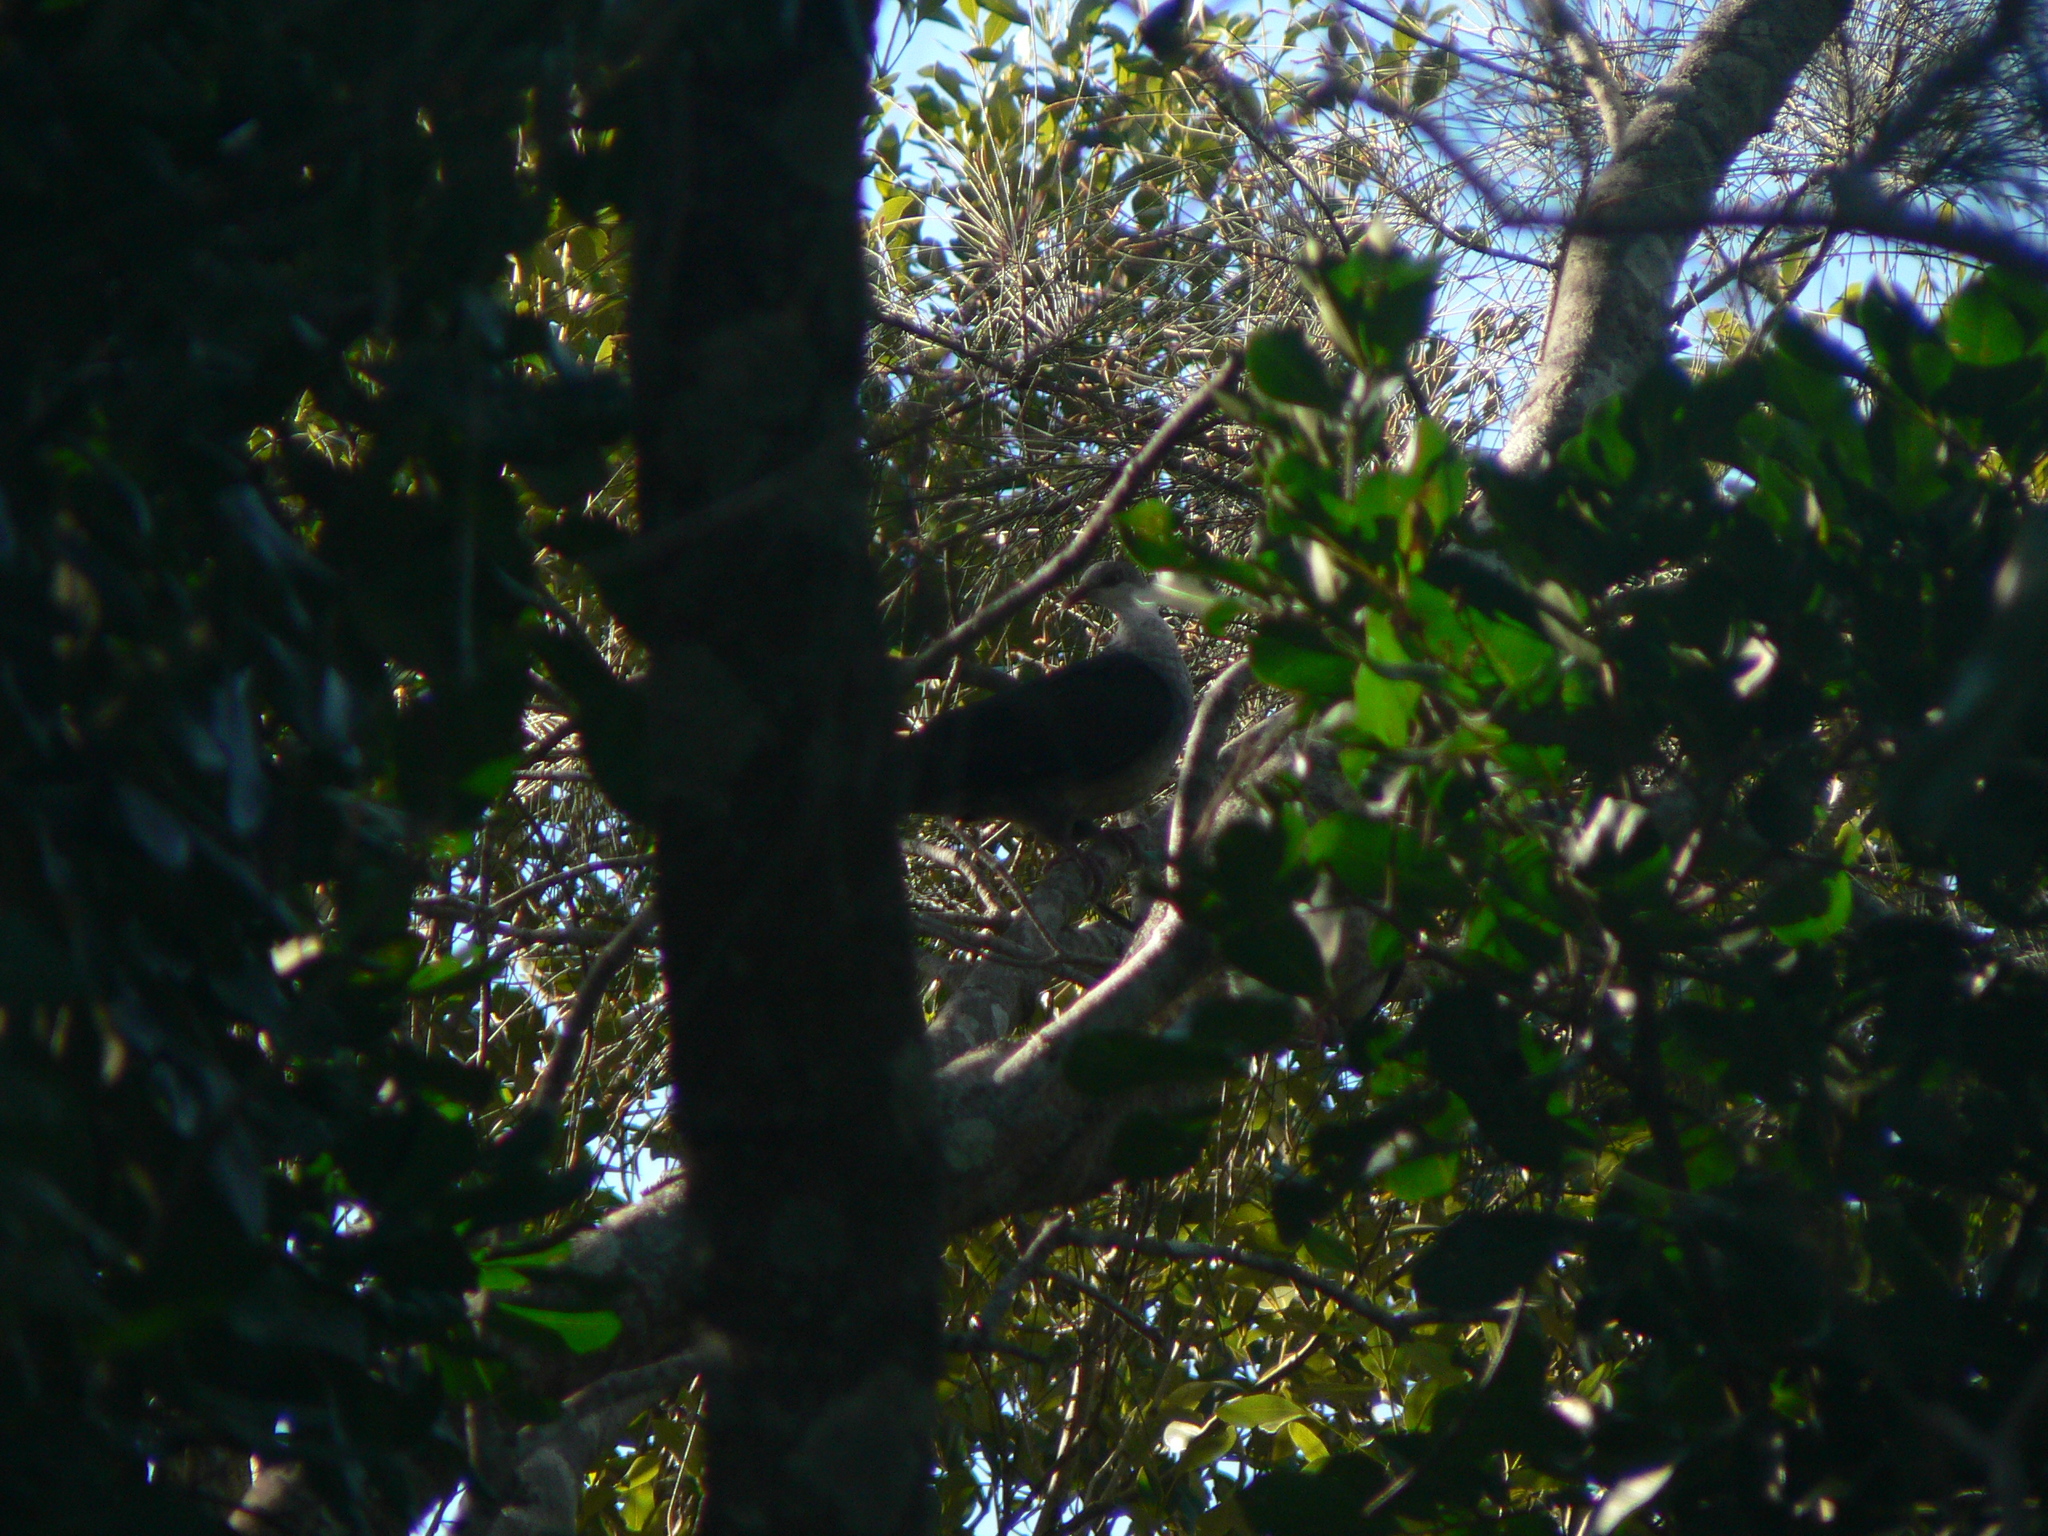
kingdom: Animalia
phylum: Chordata
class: Aves
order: Columbiformes
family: Columbidae
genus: Columba
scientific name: Columba leucomela
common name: White-headed pigeon
